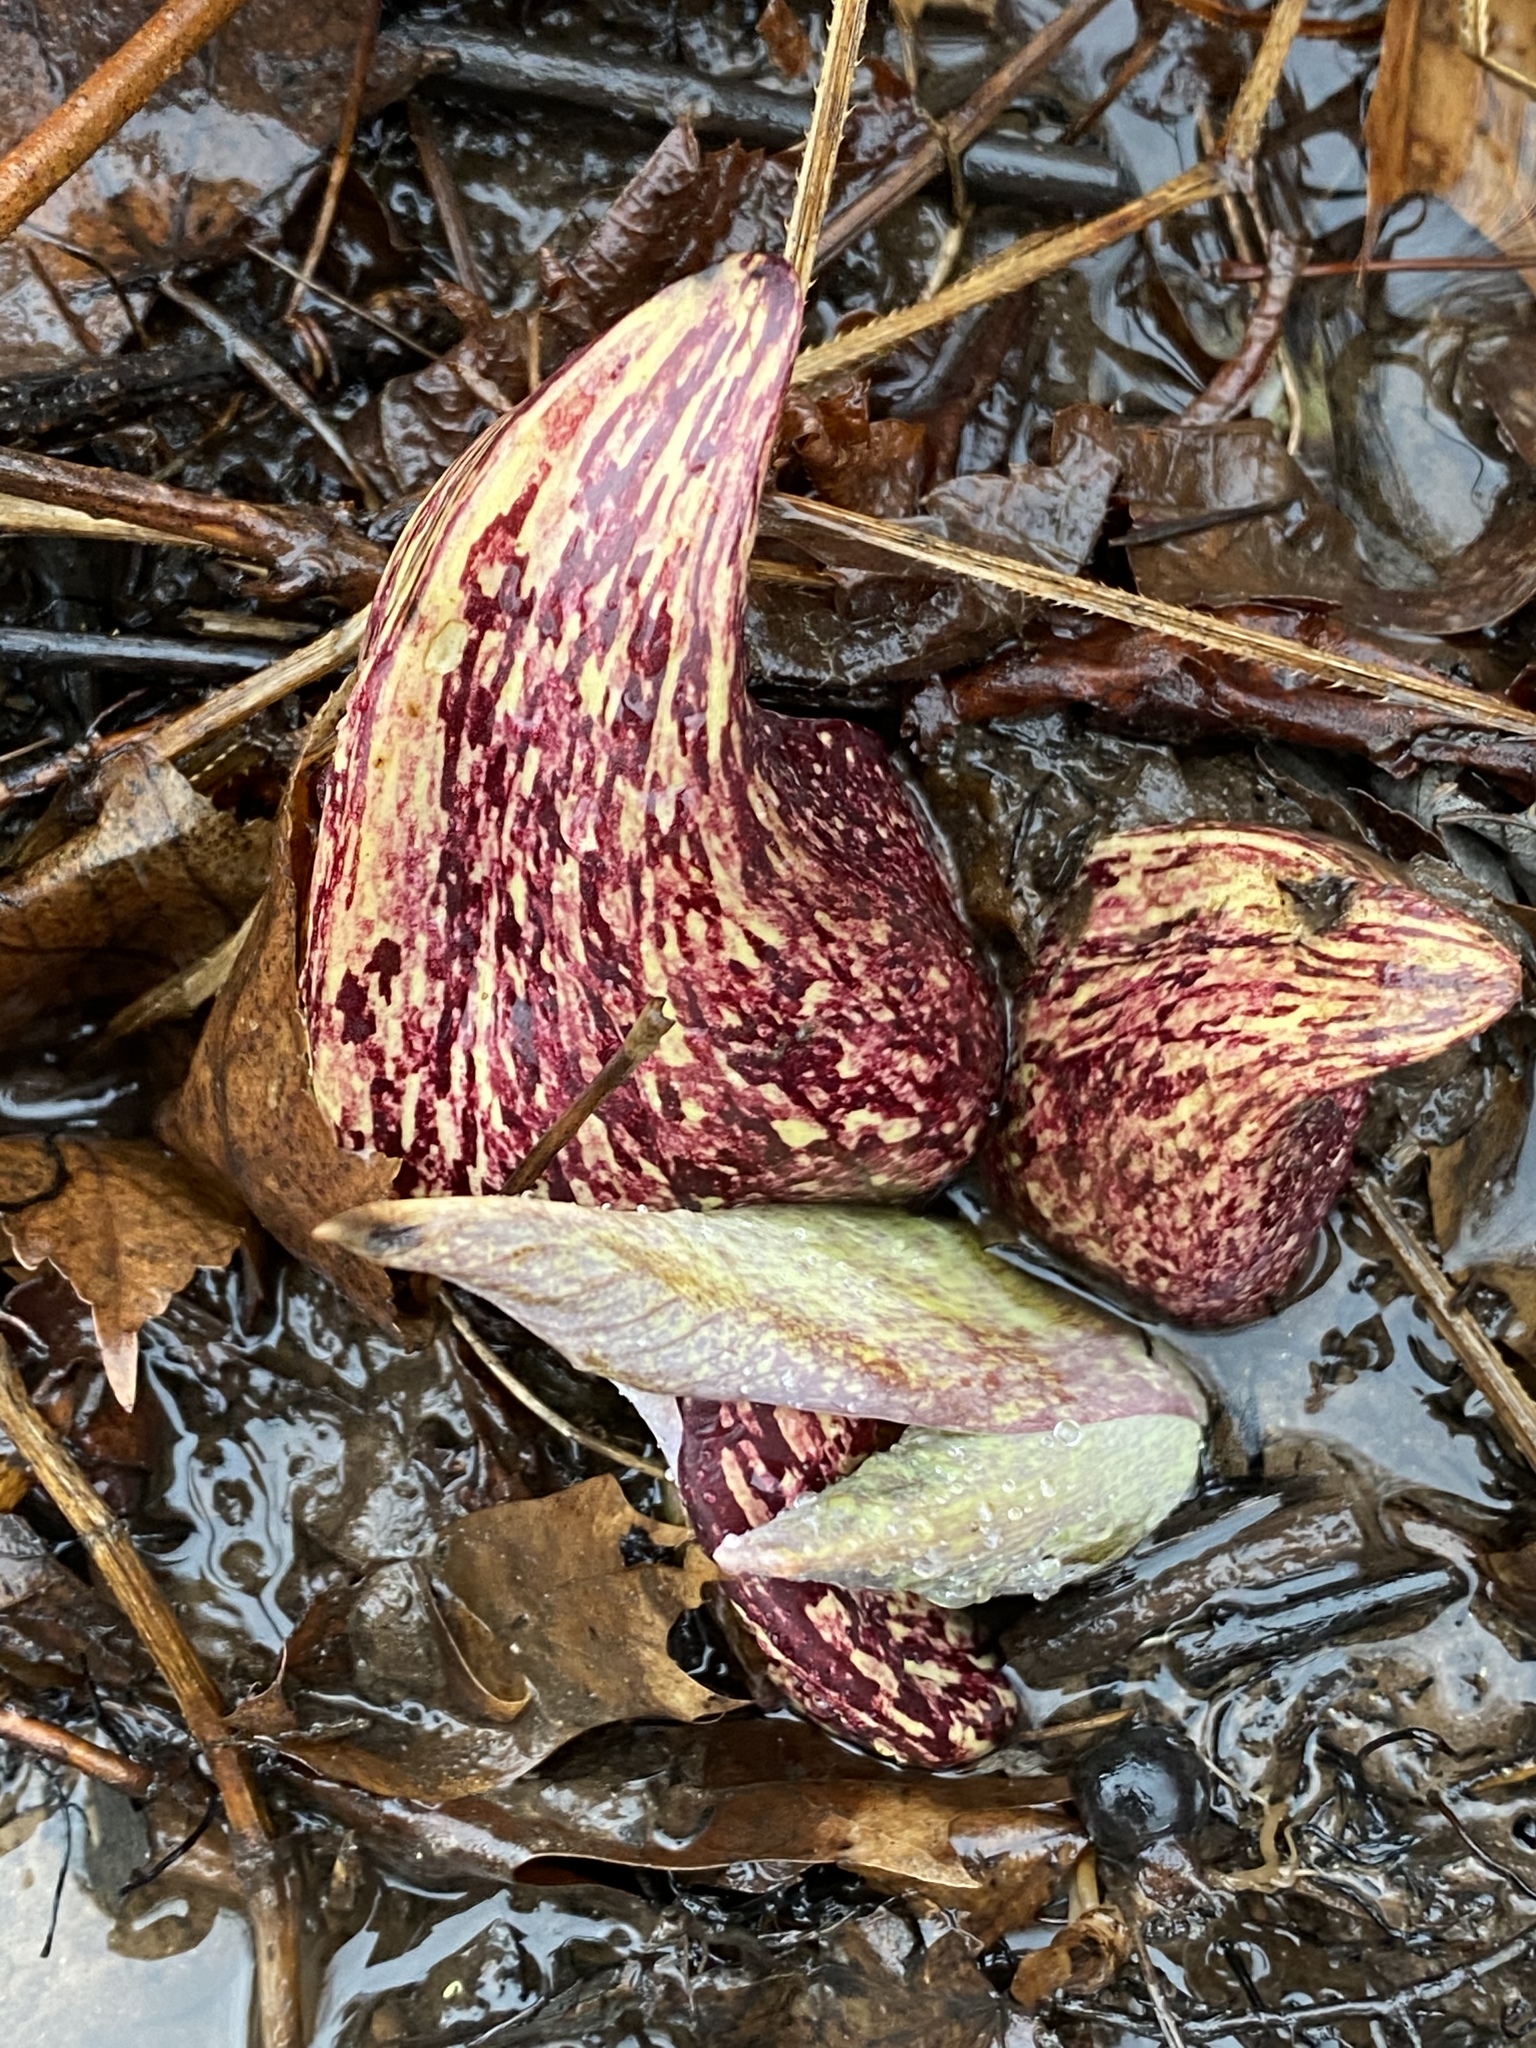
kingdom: Plantae
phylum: Tracheophyta
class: Liliopsida
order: Alismatales
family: Araceae
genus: Symplocarpus
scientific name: Symplocarpus foetidus
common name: Eastern skunk cabbage
